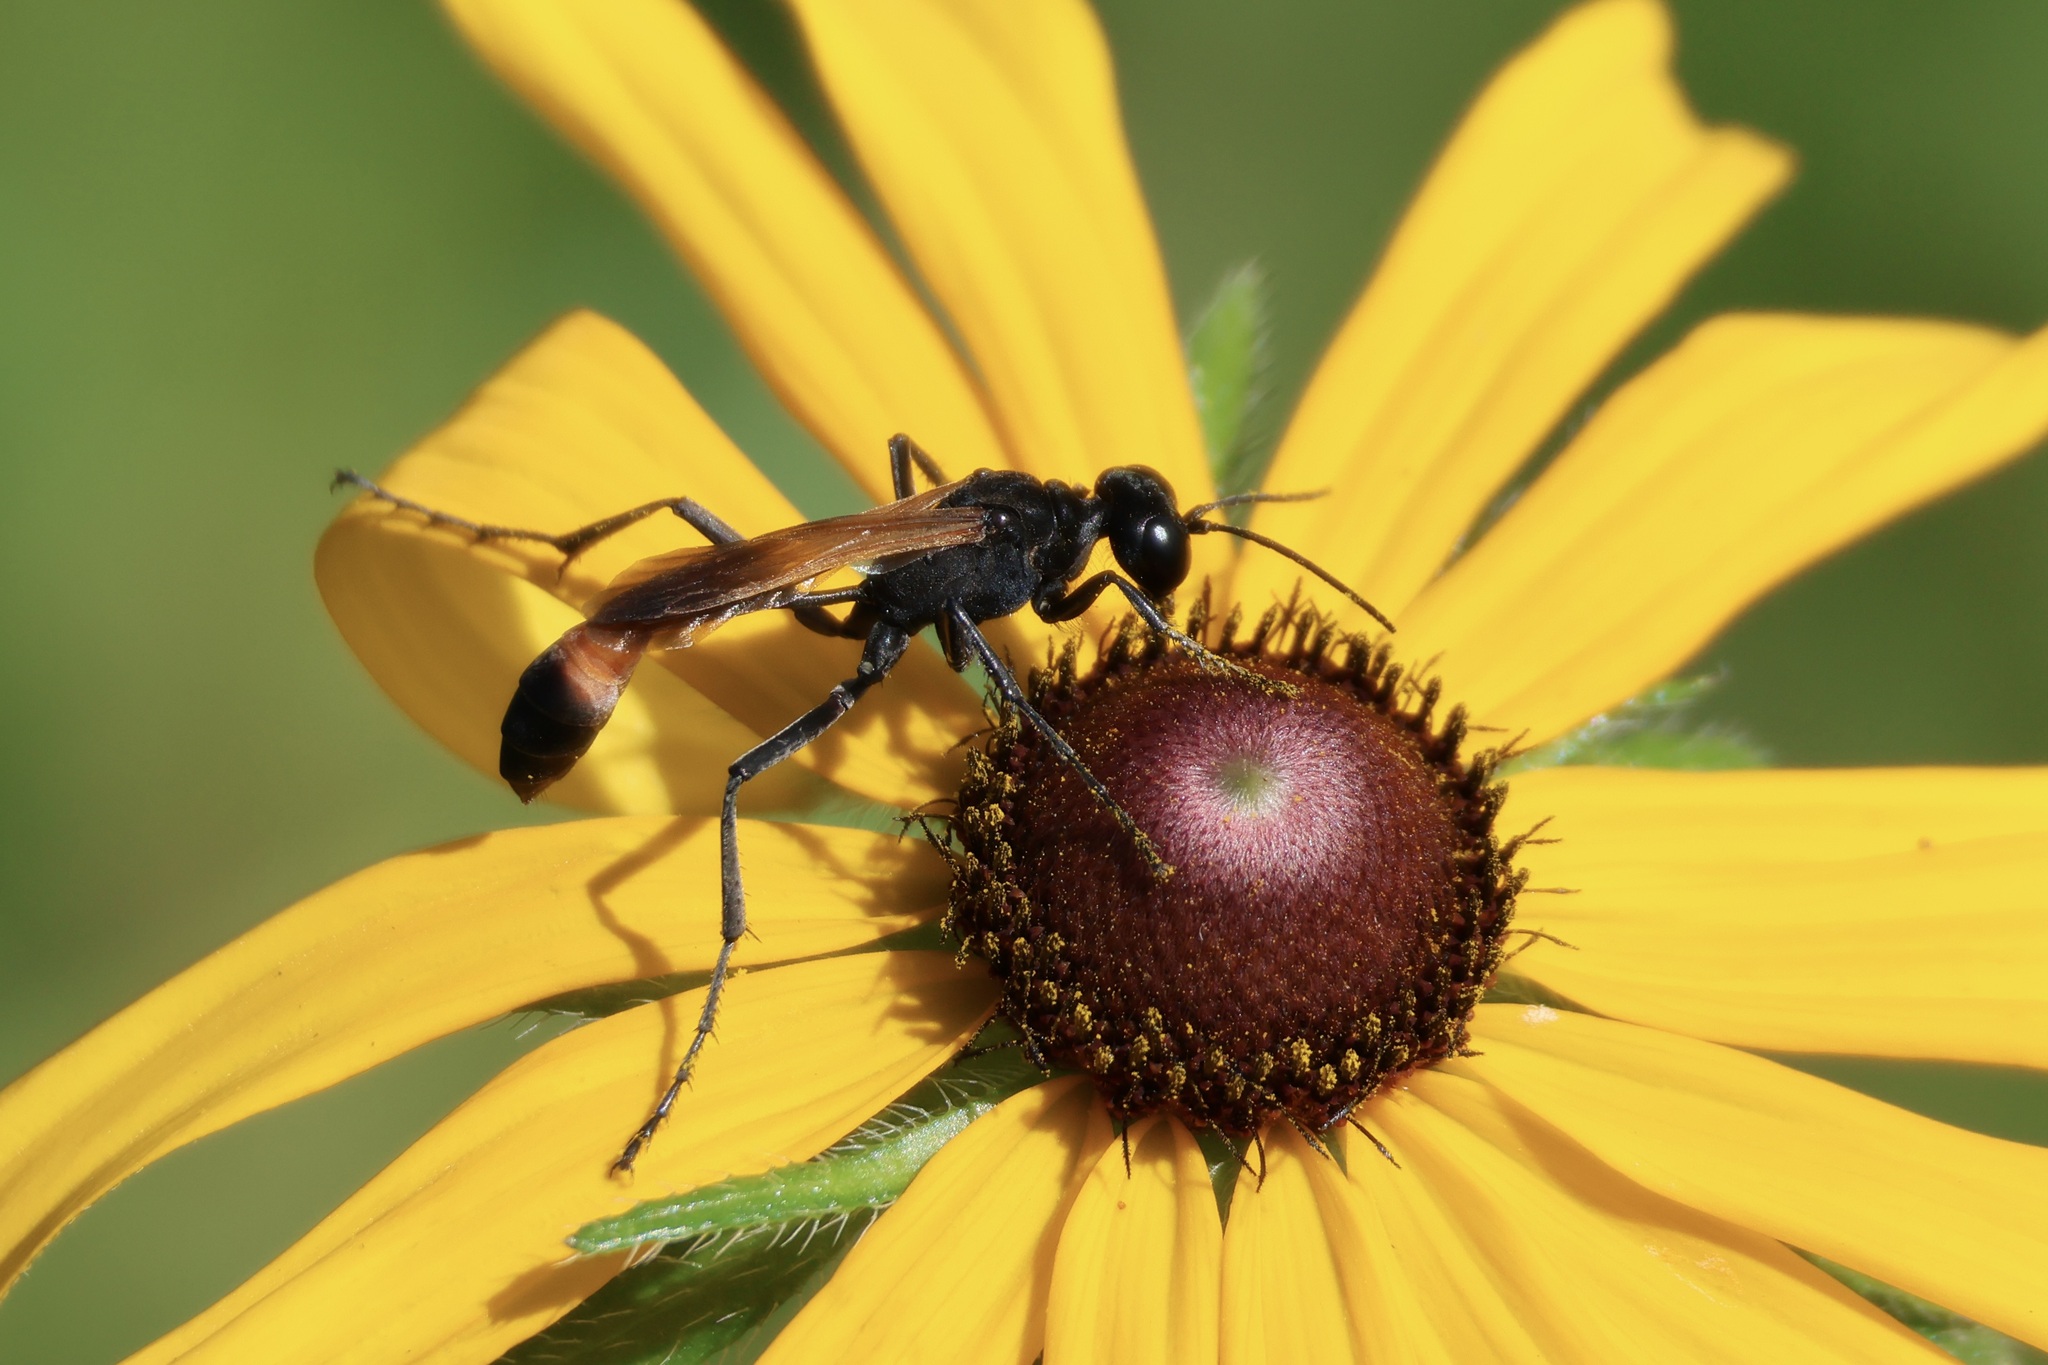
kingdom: Animalia
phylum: Arthropoda
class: Insecta
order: Hymenoptera
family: Sphecidae
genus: Ammophila
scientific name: Ammophila pictipennis
